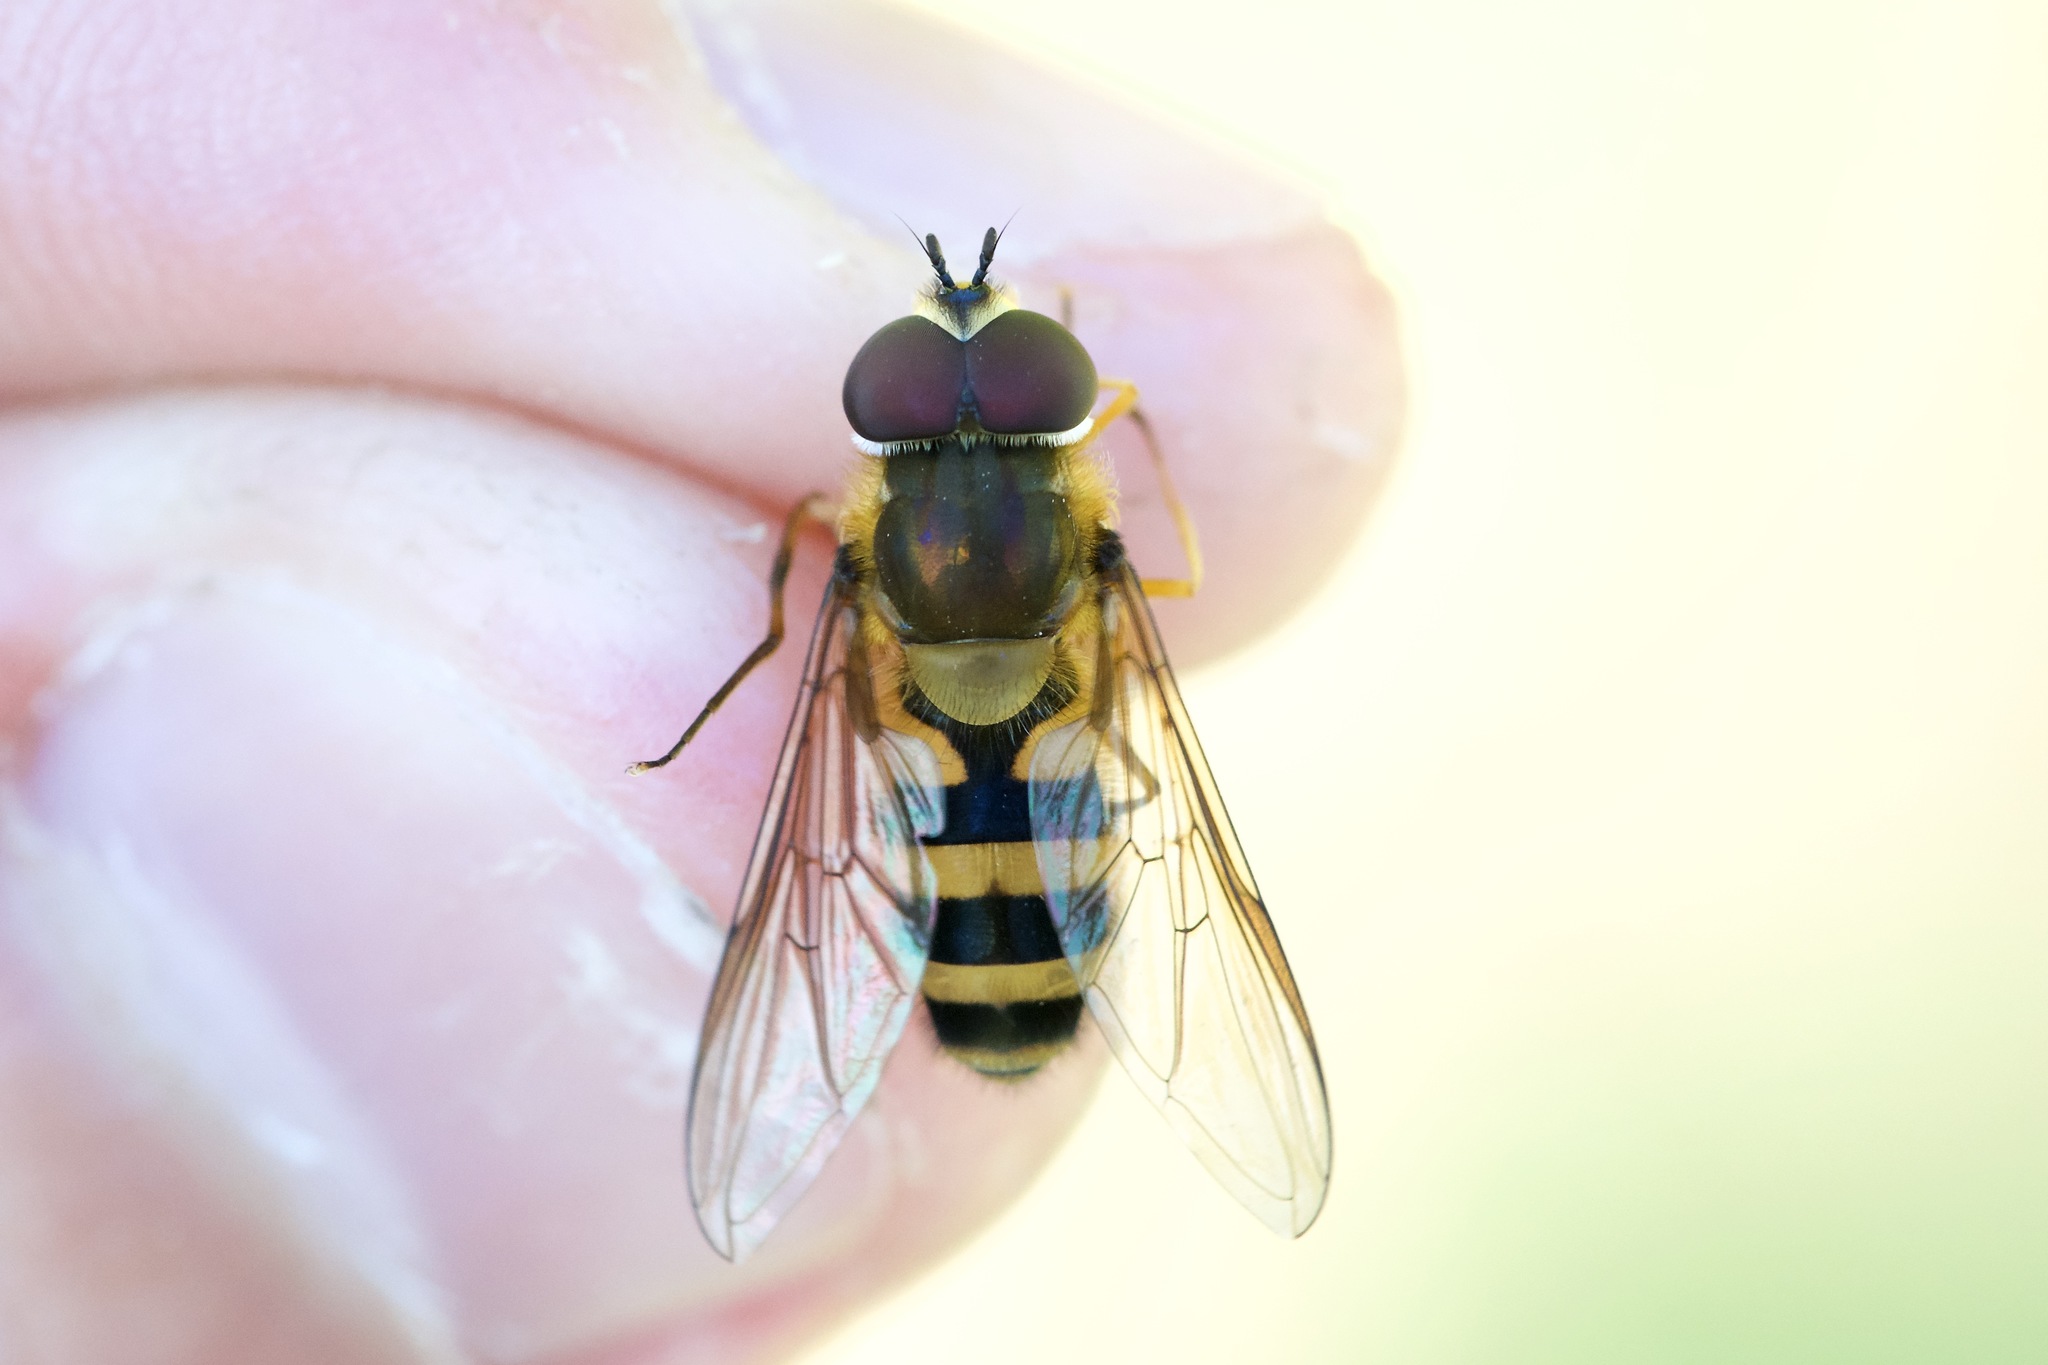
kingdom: Animalia
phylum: Arthropoda
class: Insecta
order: Diptera
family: Syrphidae
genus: Epistrophe
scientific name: Epistrophe grossulariae
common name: Black-horned smoothtail
